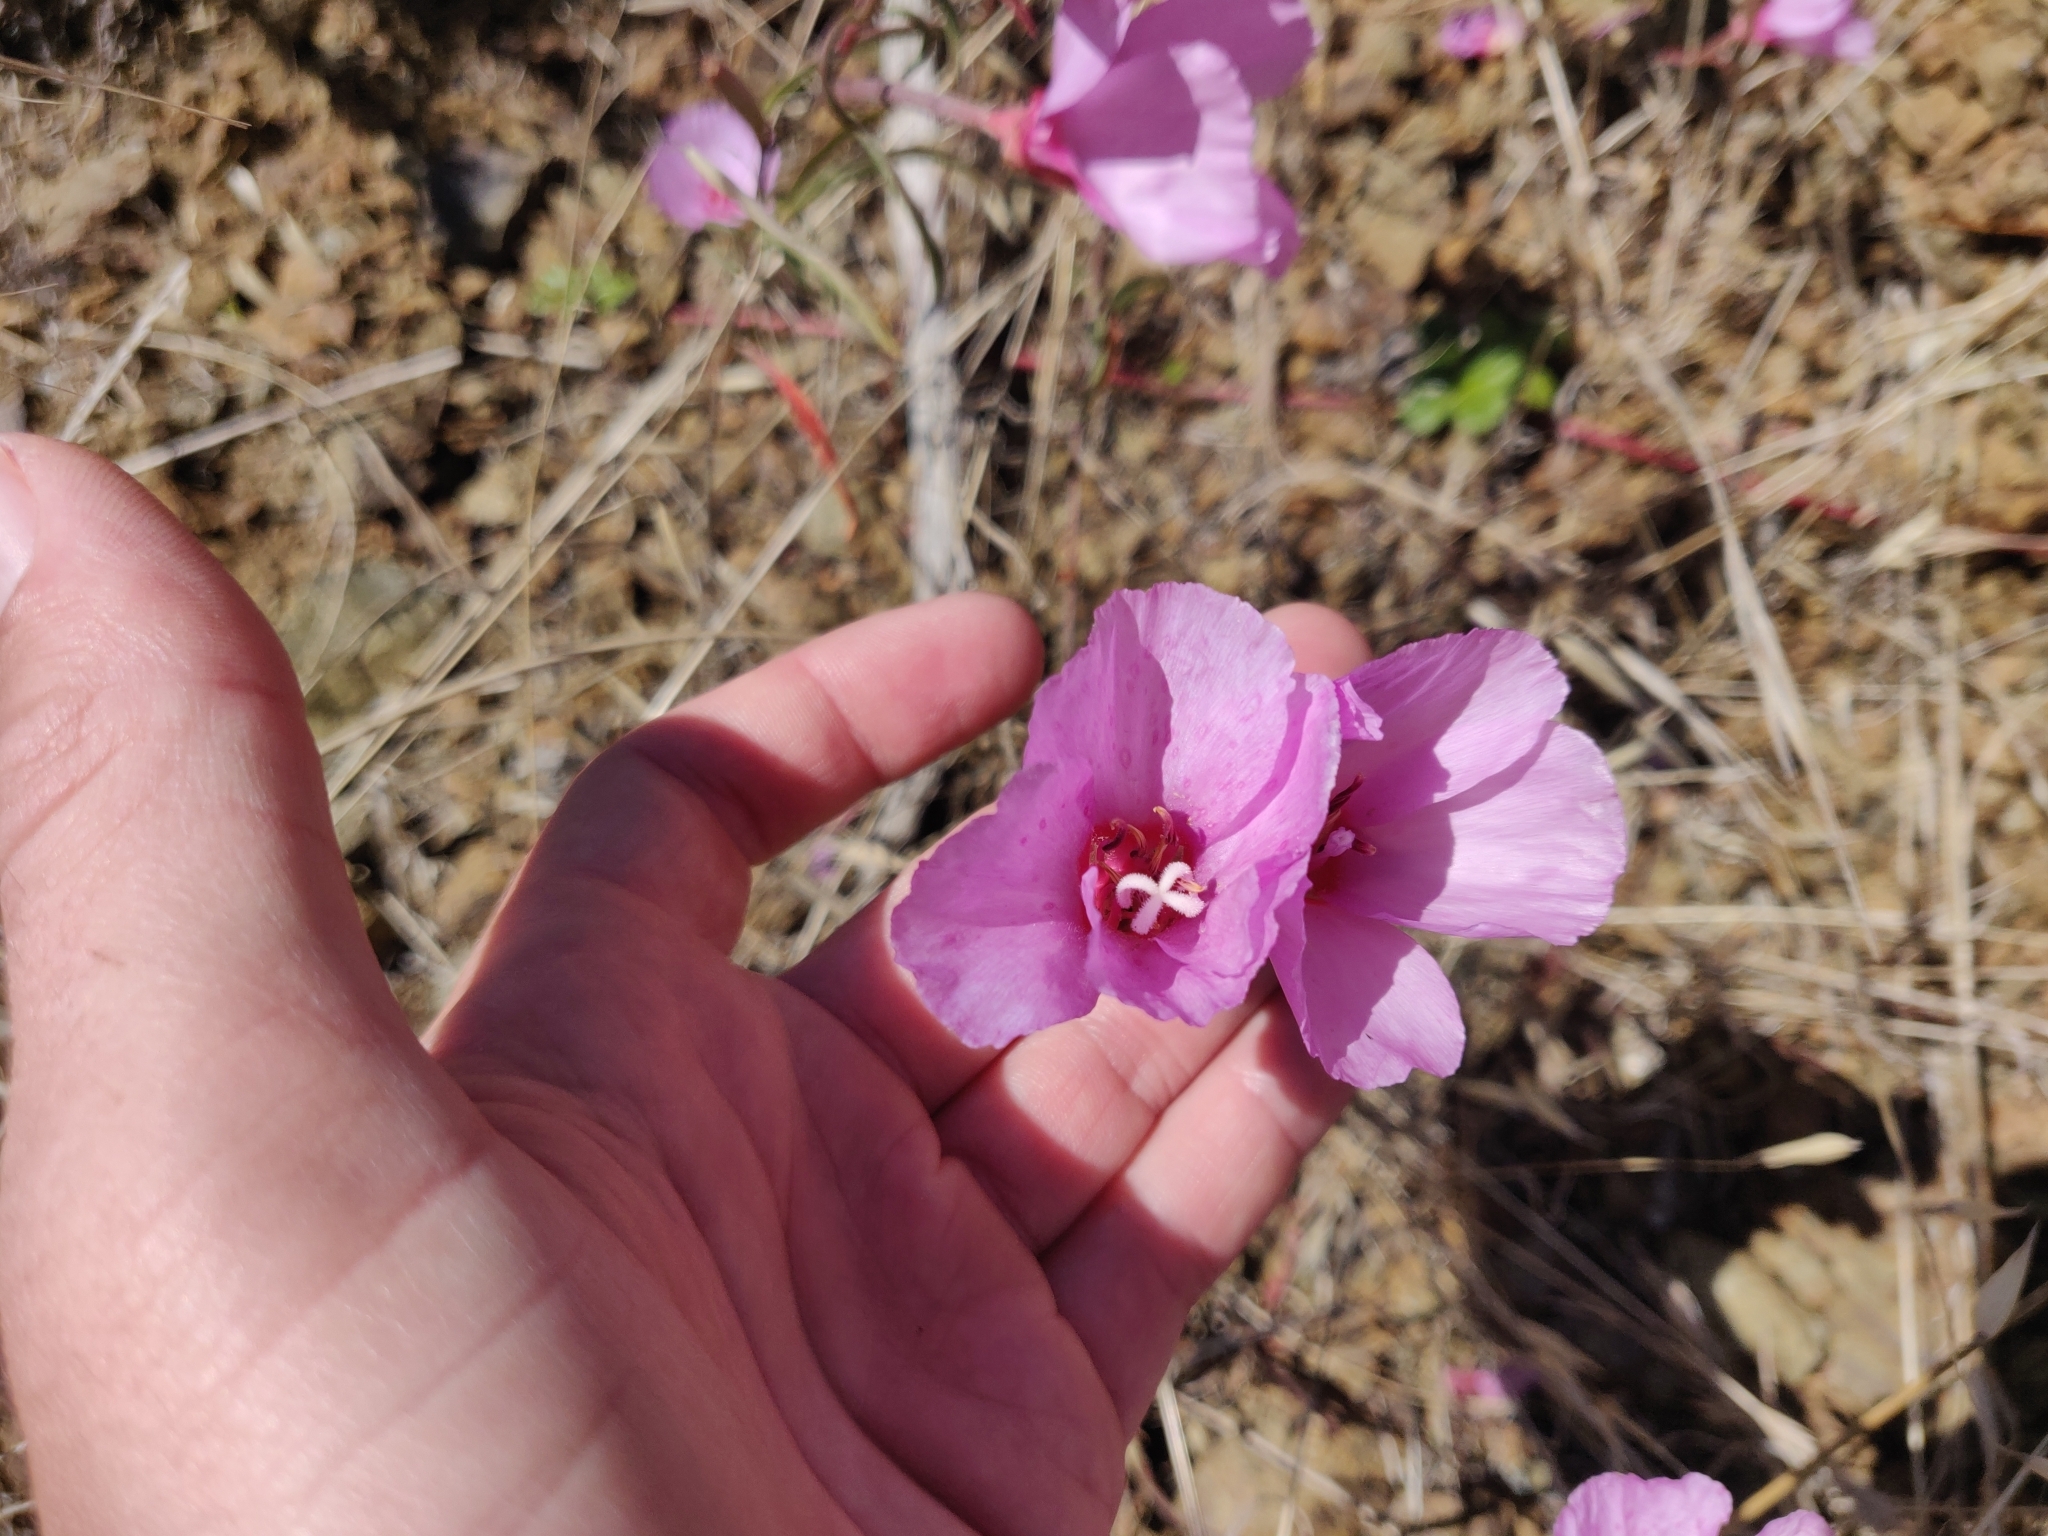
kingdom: Plantae
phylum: Tracheophyta
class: Magnoliopsida
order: Myrtales
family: Onagraceae
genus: Clarkia
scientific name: Clarkia rubicunda
